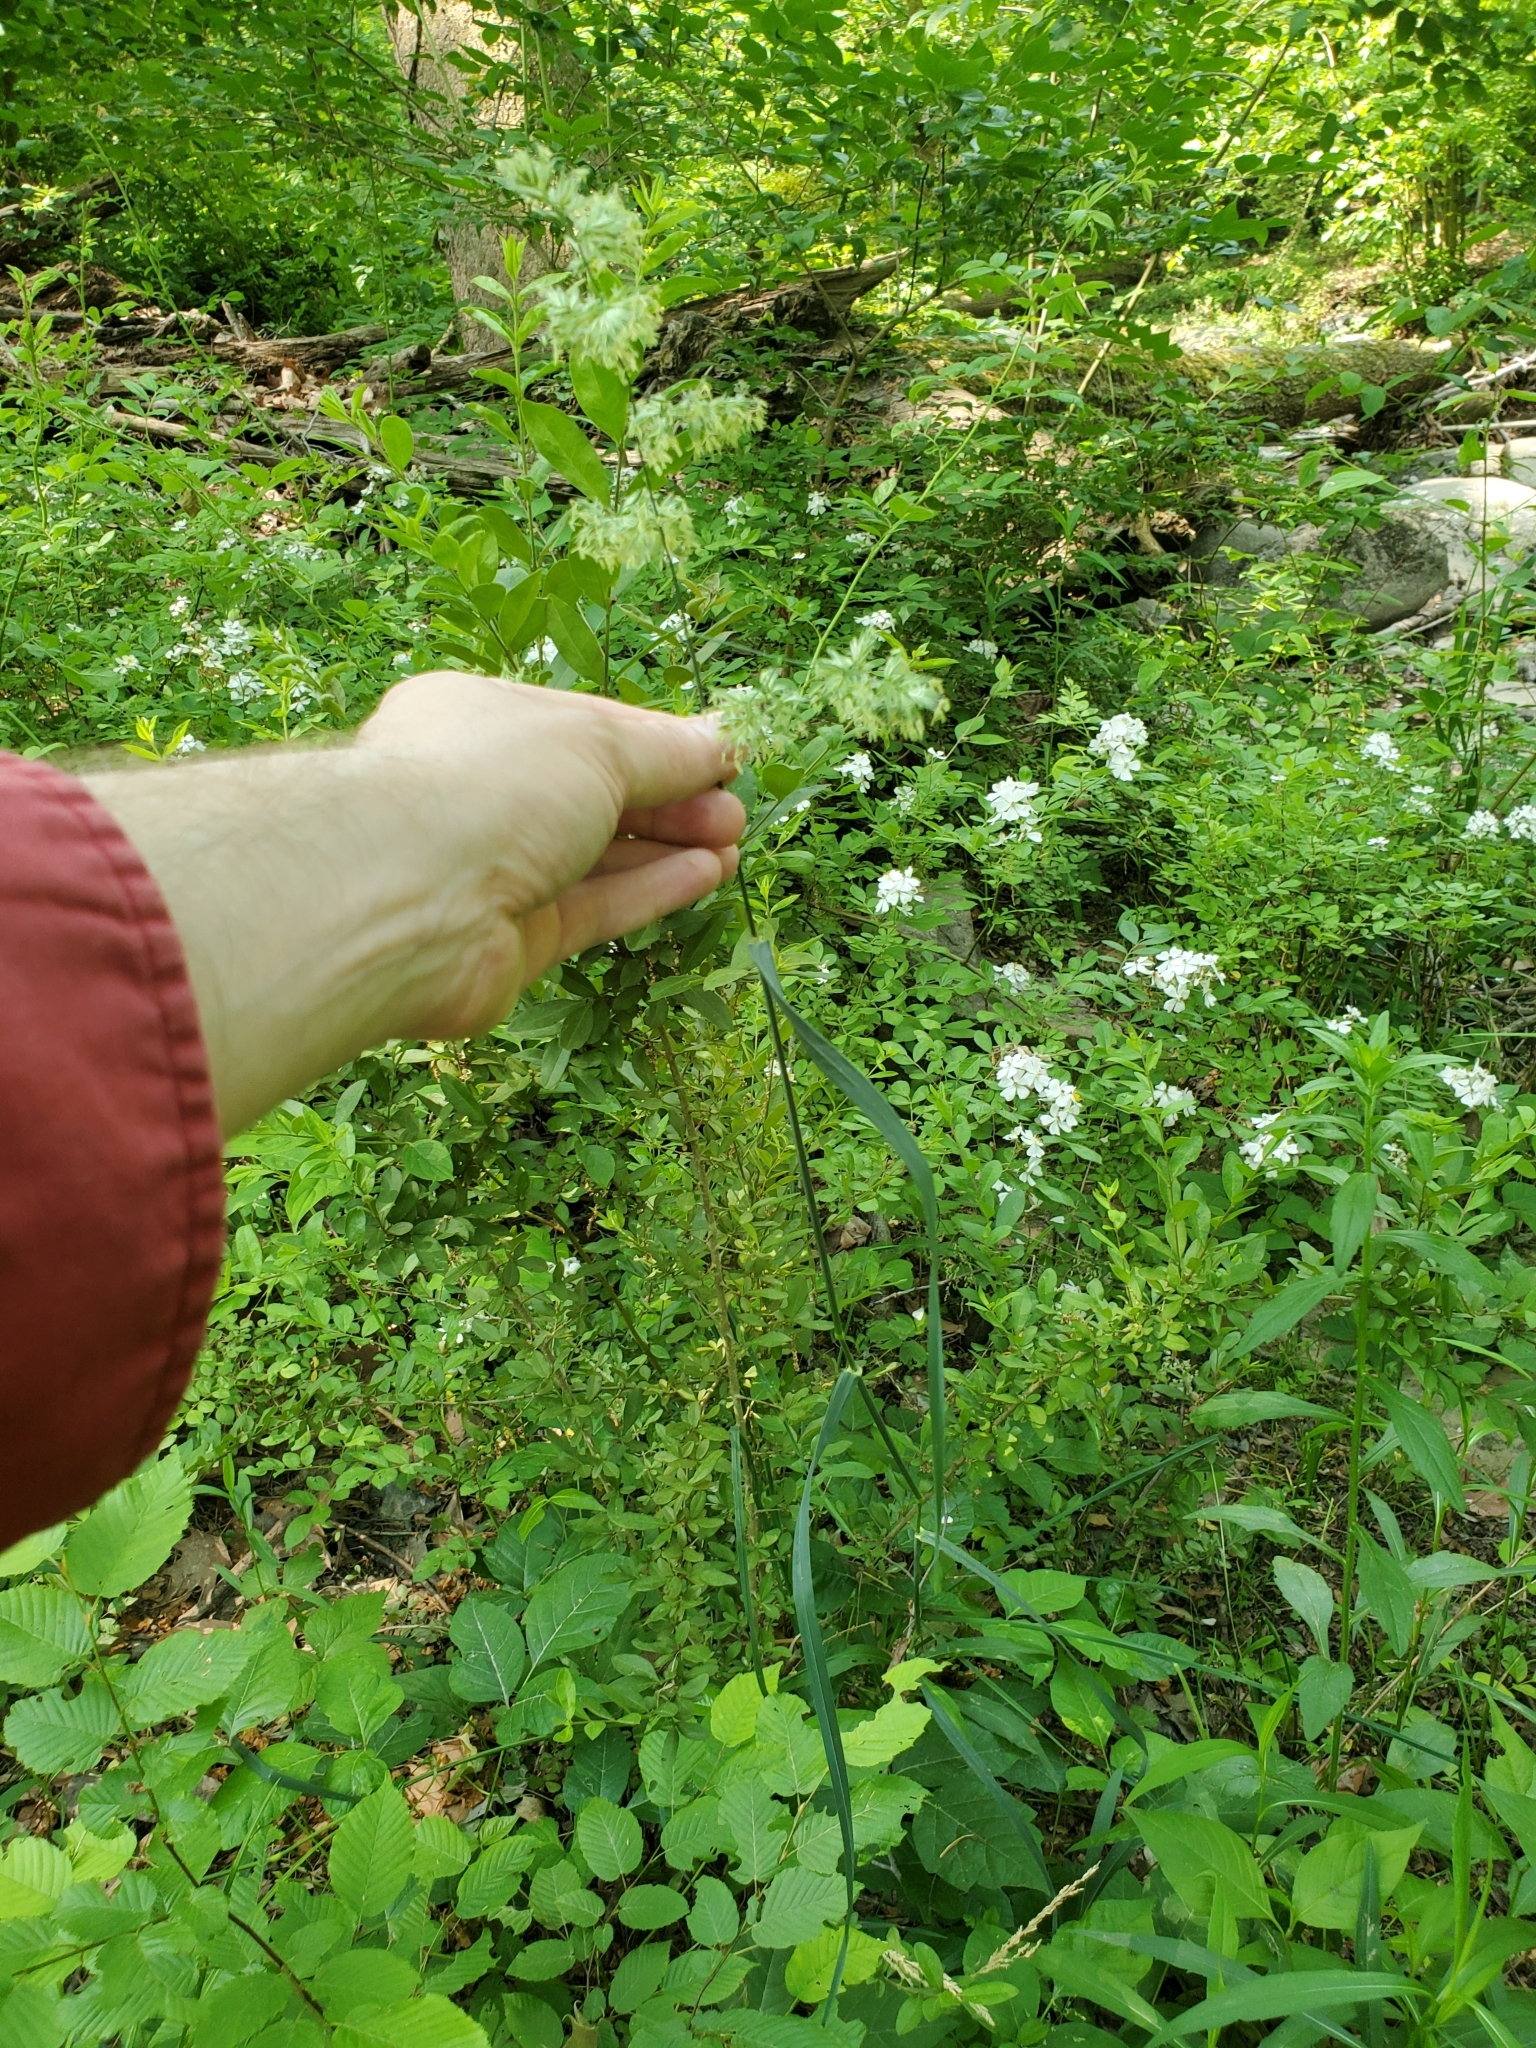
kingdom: Plantae
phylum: Tracheophyta
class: Liliopsida
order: Poales
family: Poaceae
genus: Dactylis
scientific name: Dactylis glomerata
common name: Orchardgrass
